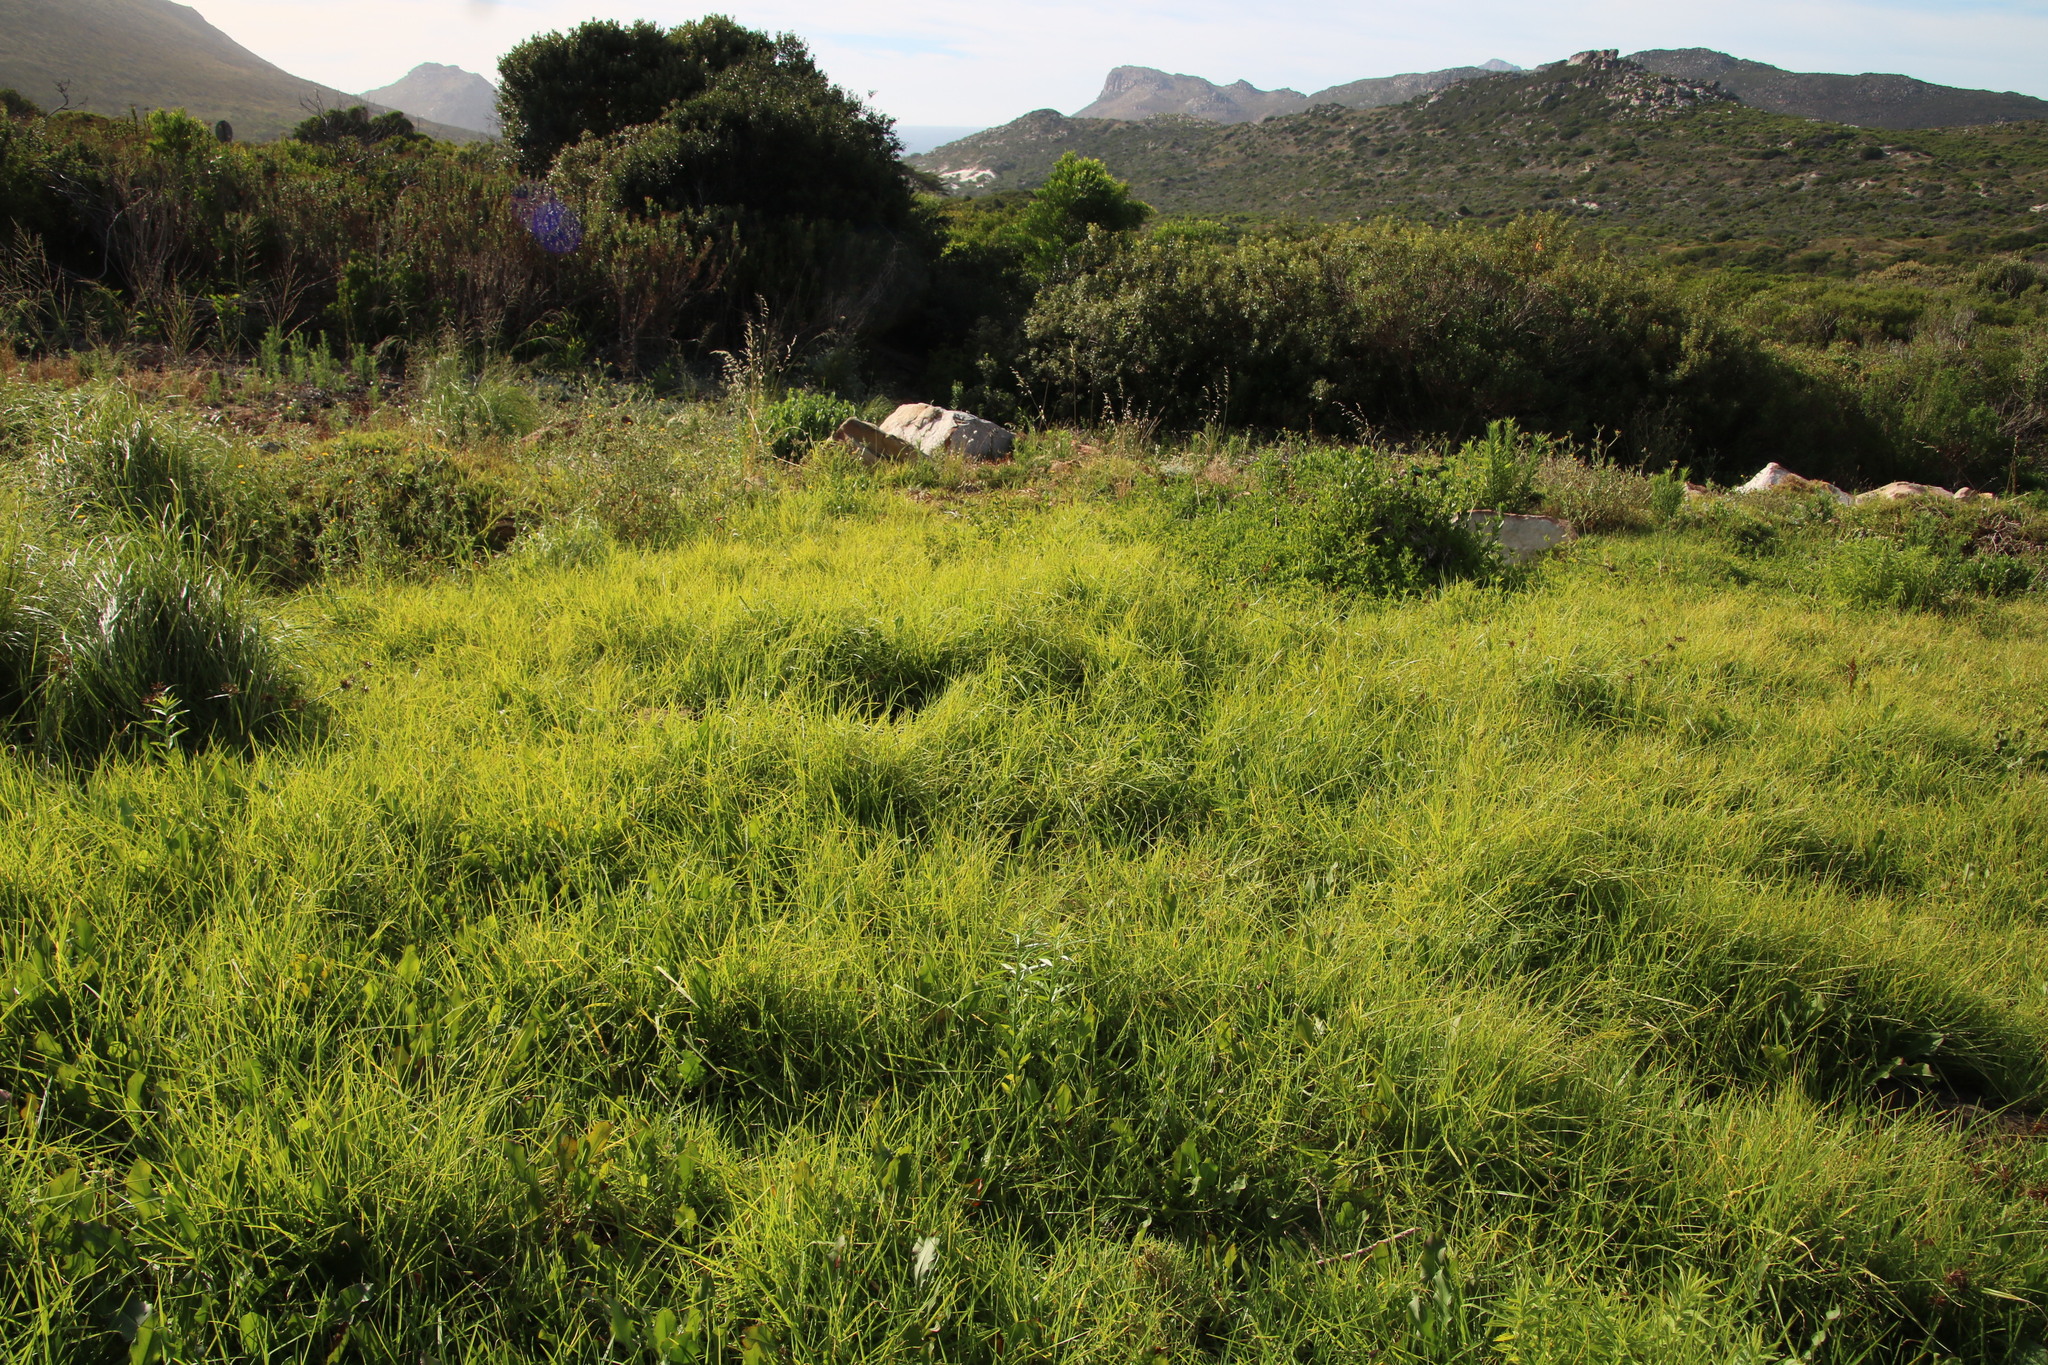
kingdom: Plantae
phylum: Tracheophyta
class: Liliopsida
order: Poales
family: Poaceae
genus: Cenchrus
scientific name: Cenchrus clandestinus
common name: Kikuyugrass
